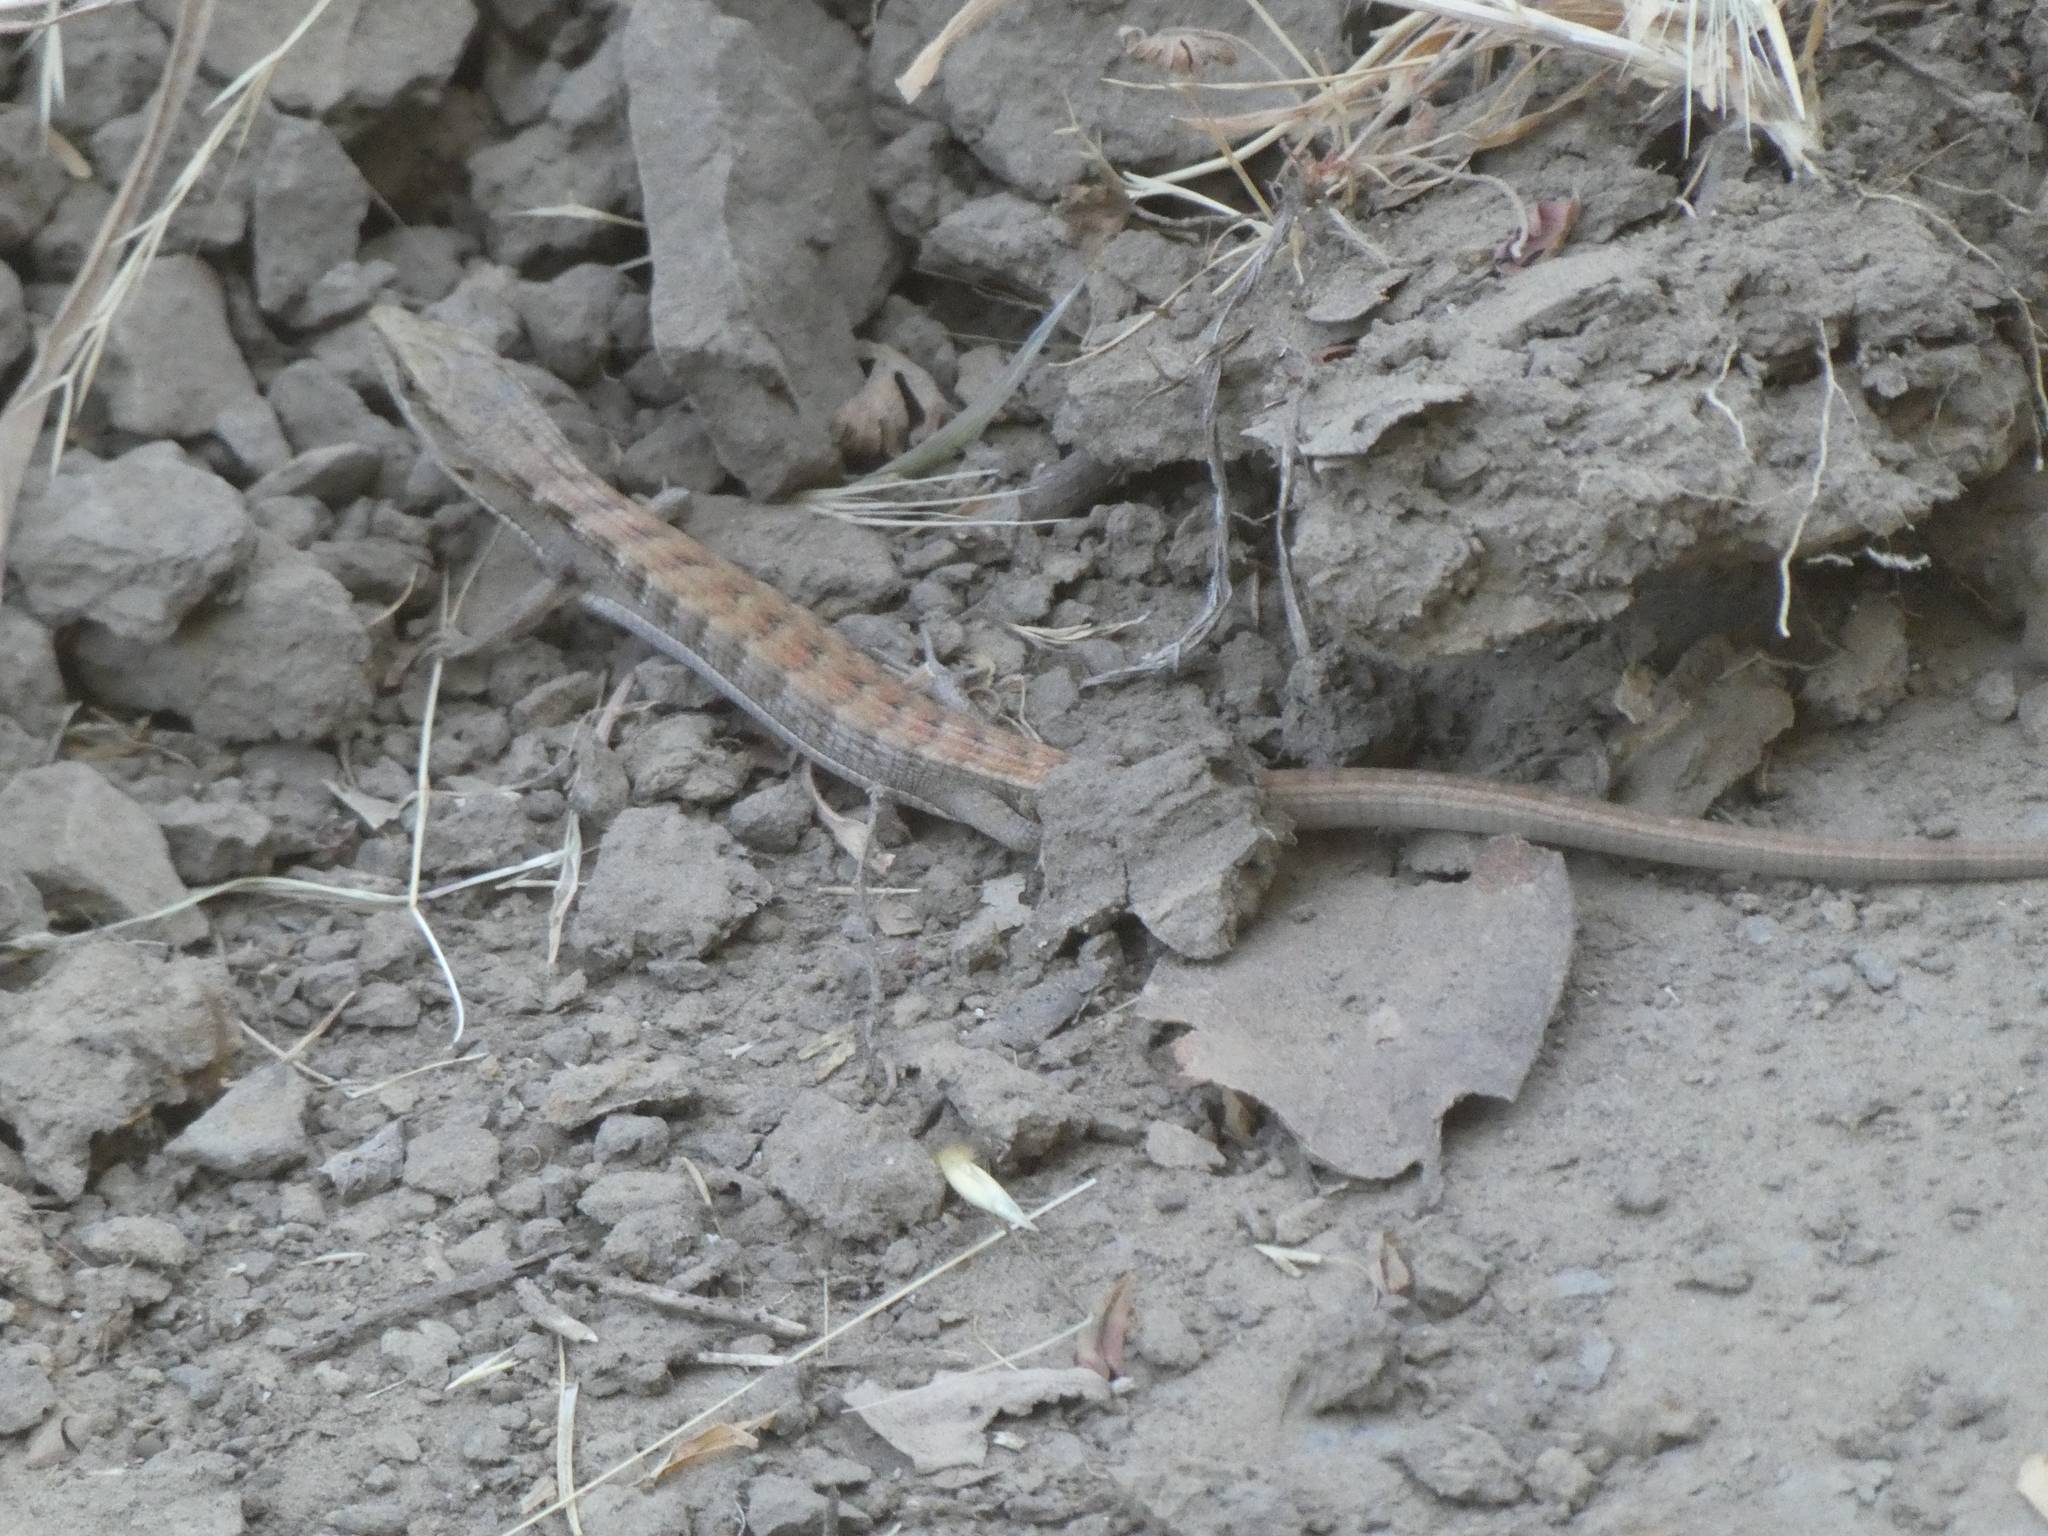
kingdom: Animalia
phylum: Chordata
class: Squamata
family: Anguidae
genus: Elgaria
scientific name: Elgaria multicarinata
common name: Southern alligator lizard
